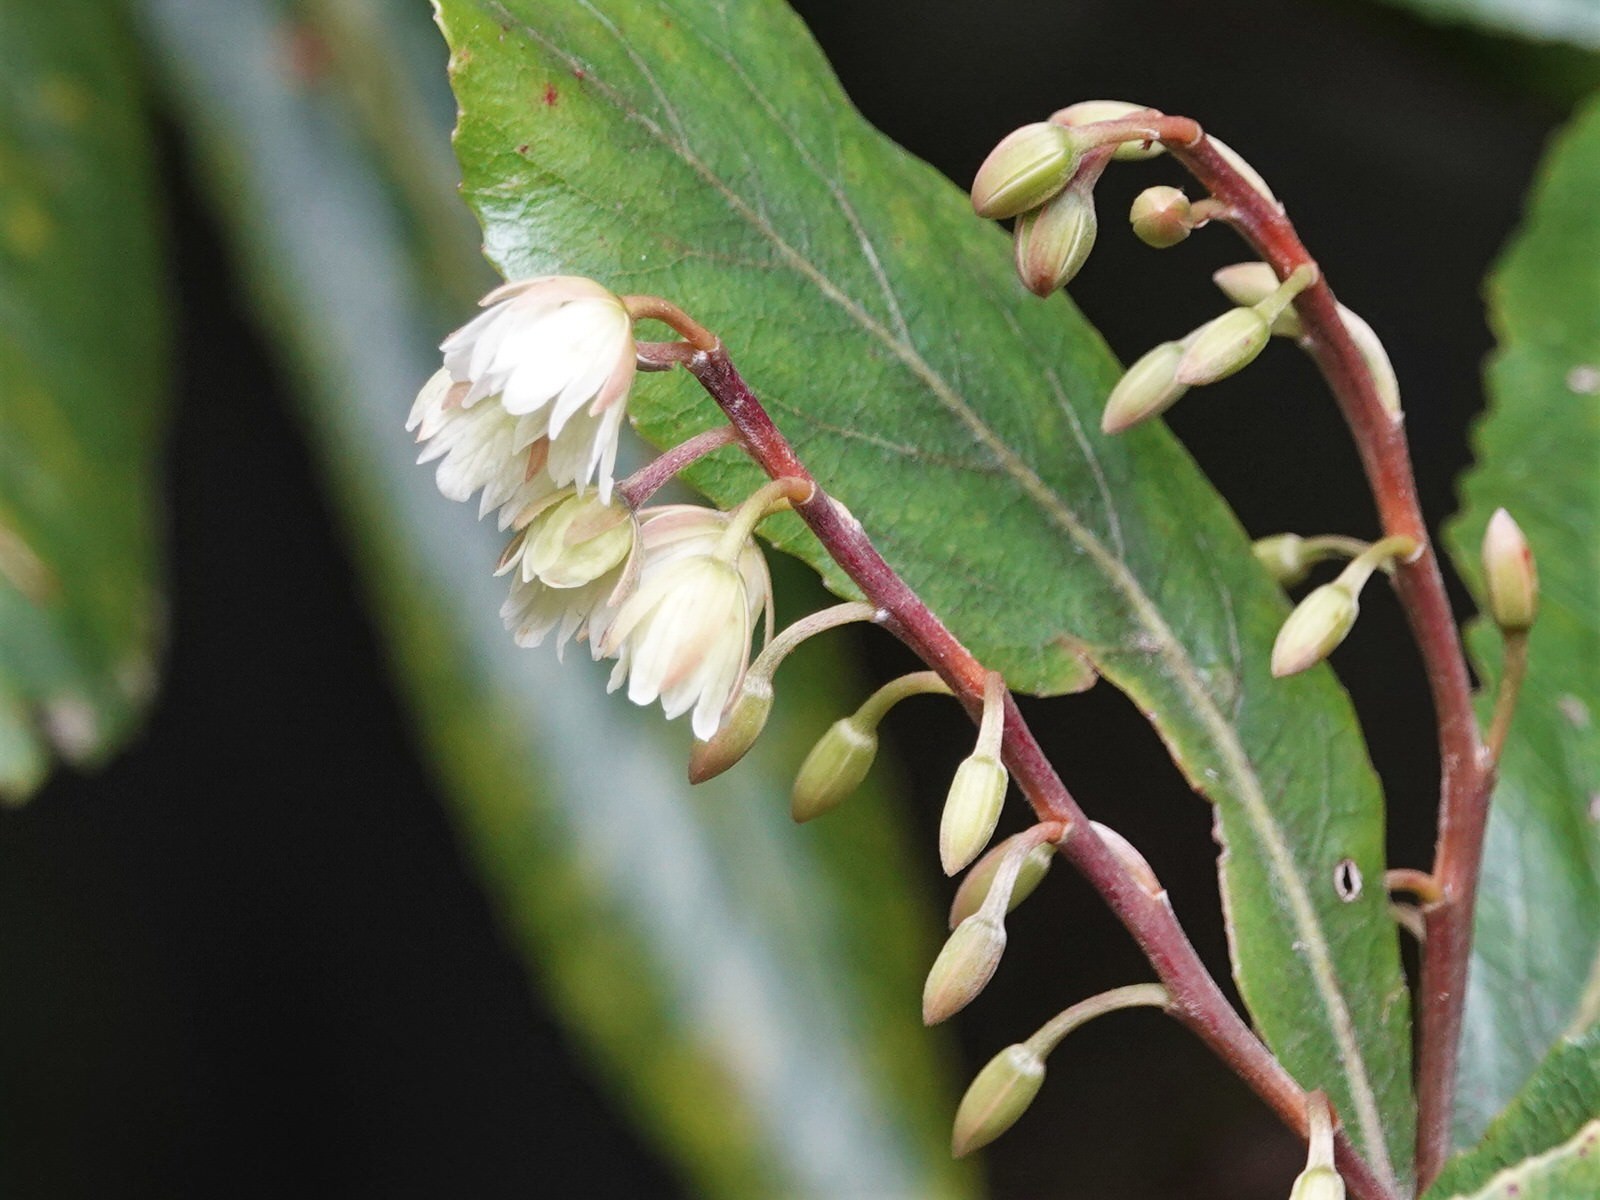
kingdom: Plantae
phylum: Tracheophyta
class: Magnoliopsida
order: Oxalidales
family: Elaeocarpaceae
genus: Elaeocarpus
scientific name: Elaeocarpus dentatus
